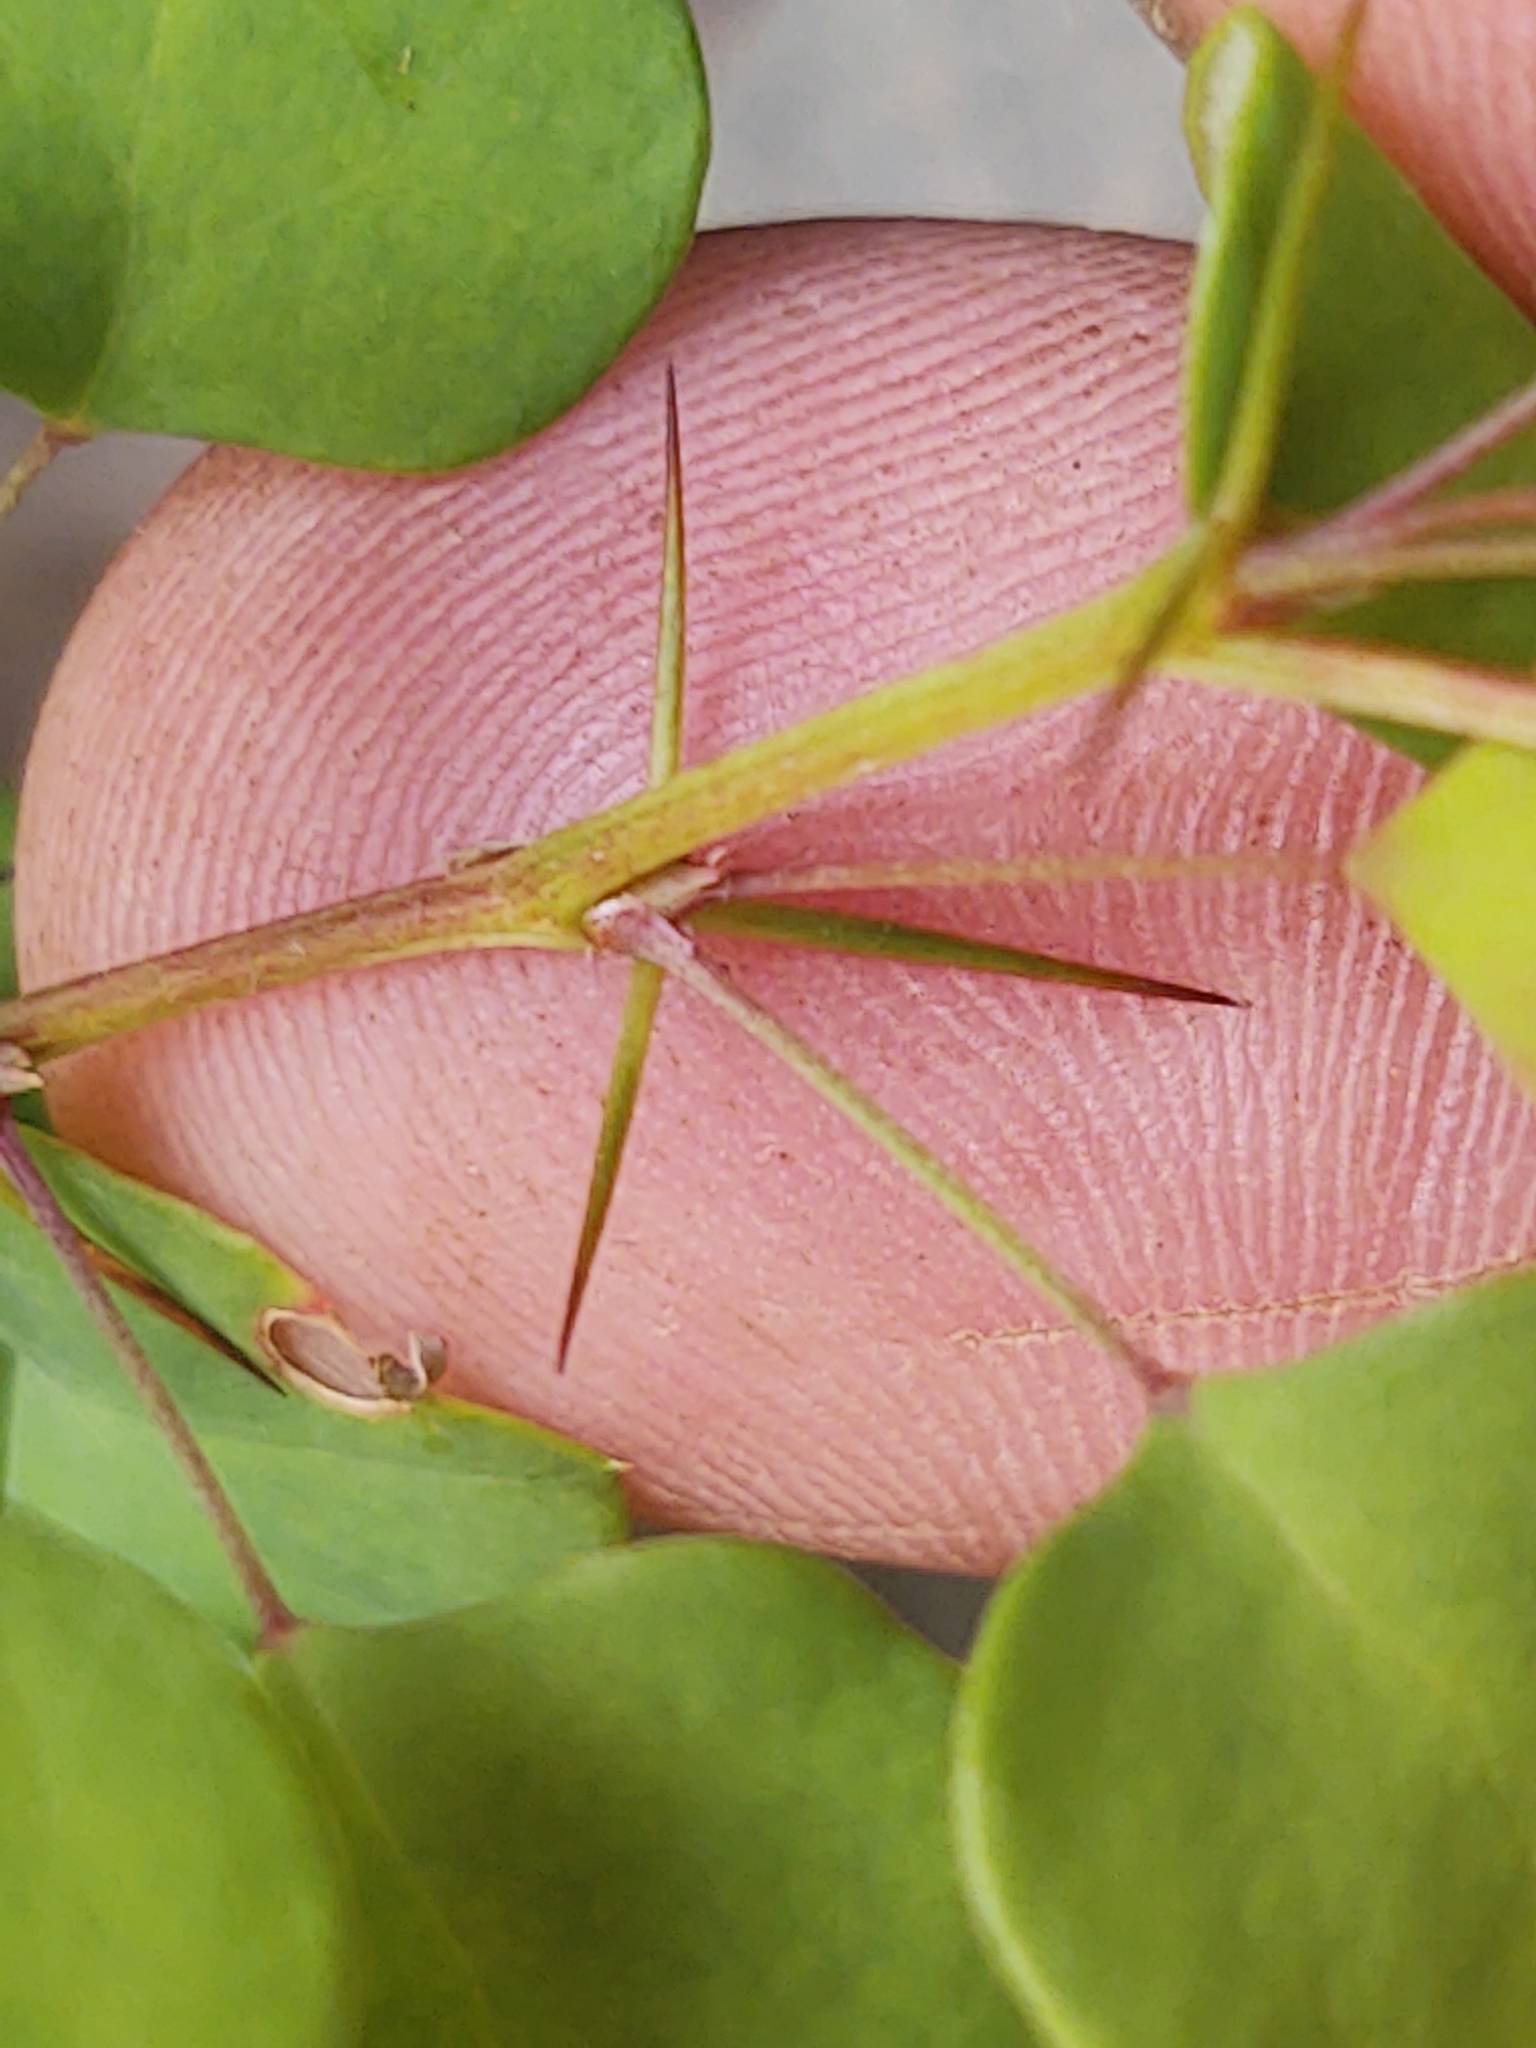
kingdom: Plantae
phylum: Tracheophyta
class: Magnoliopsida
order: Ranunculales
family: Berberidaceae
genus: Berberis
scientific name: Berberis thunbergii
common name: Japanese barberry
